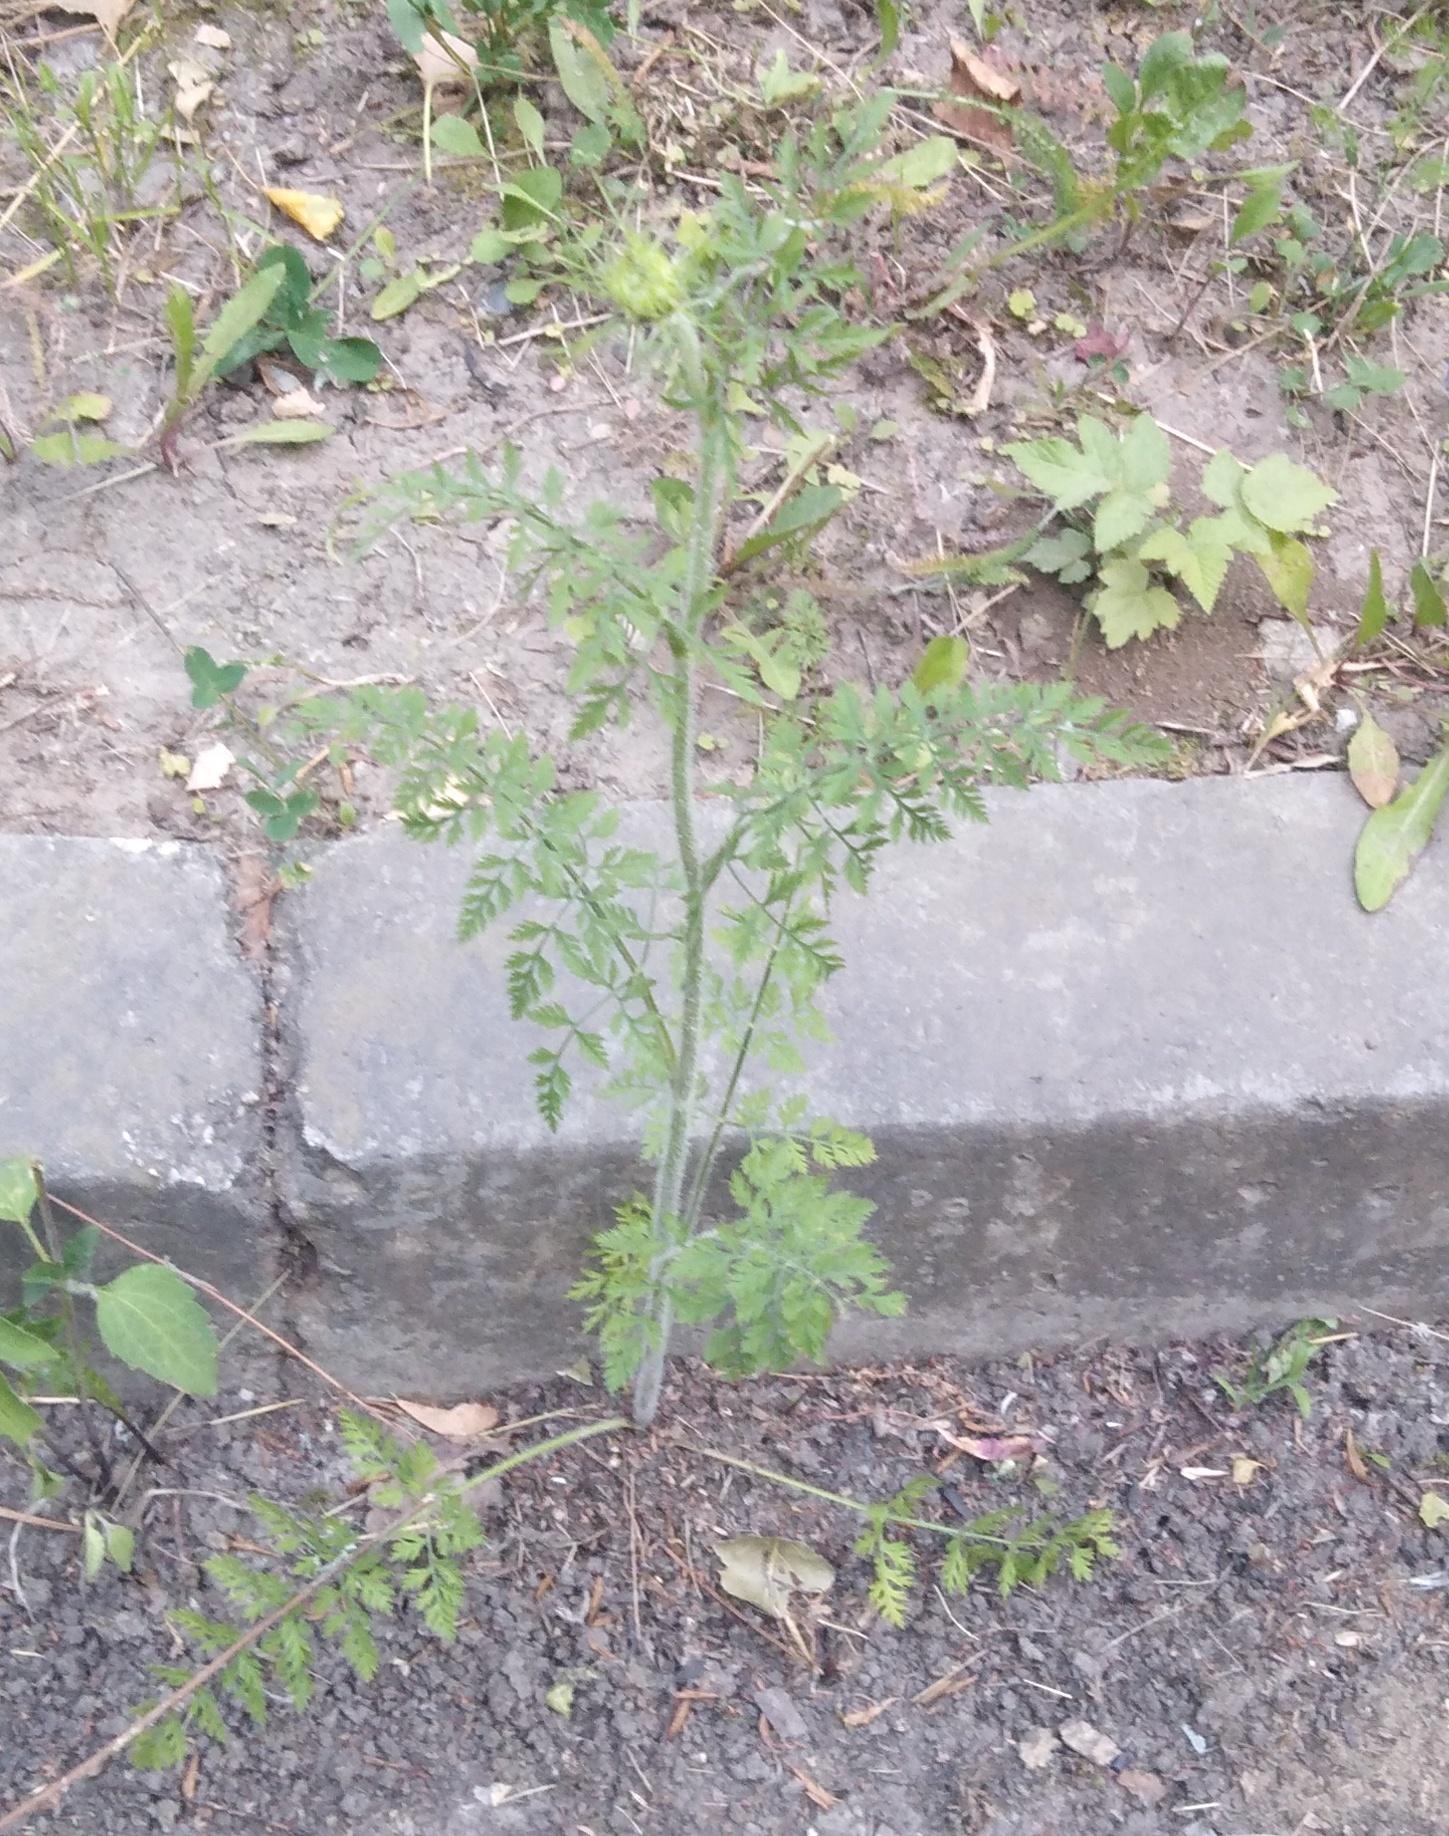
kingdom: Plantae
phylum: Tracheophyta
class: Magnoliopsida
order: Apiales
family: Apiaceae
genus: Daucus
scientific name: Daucus carota
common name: Wild carrot
